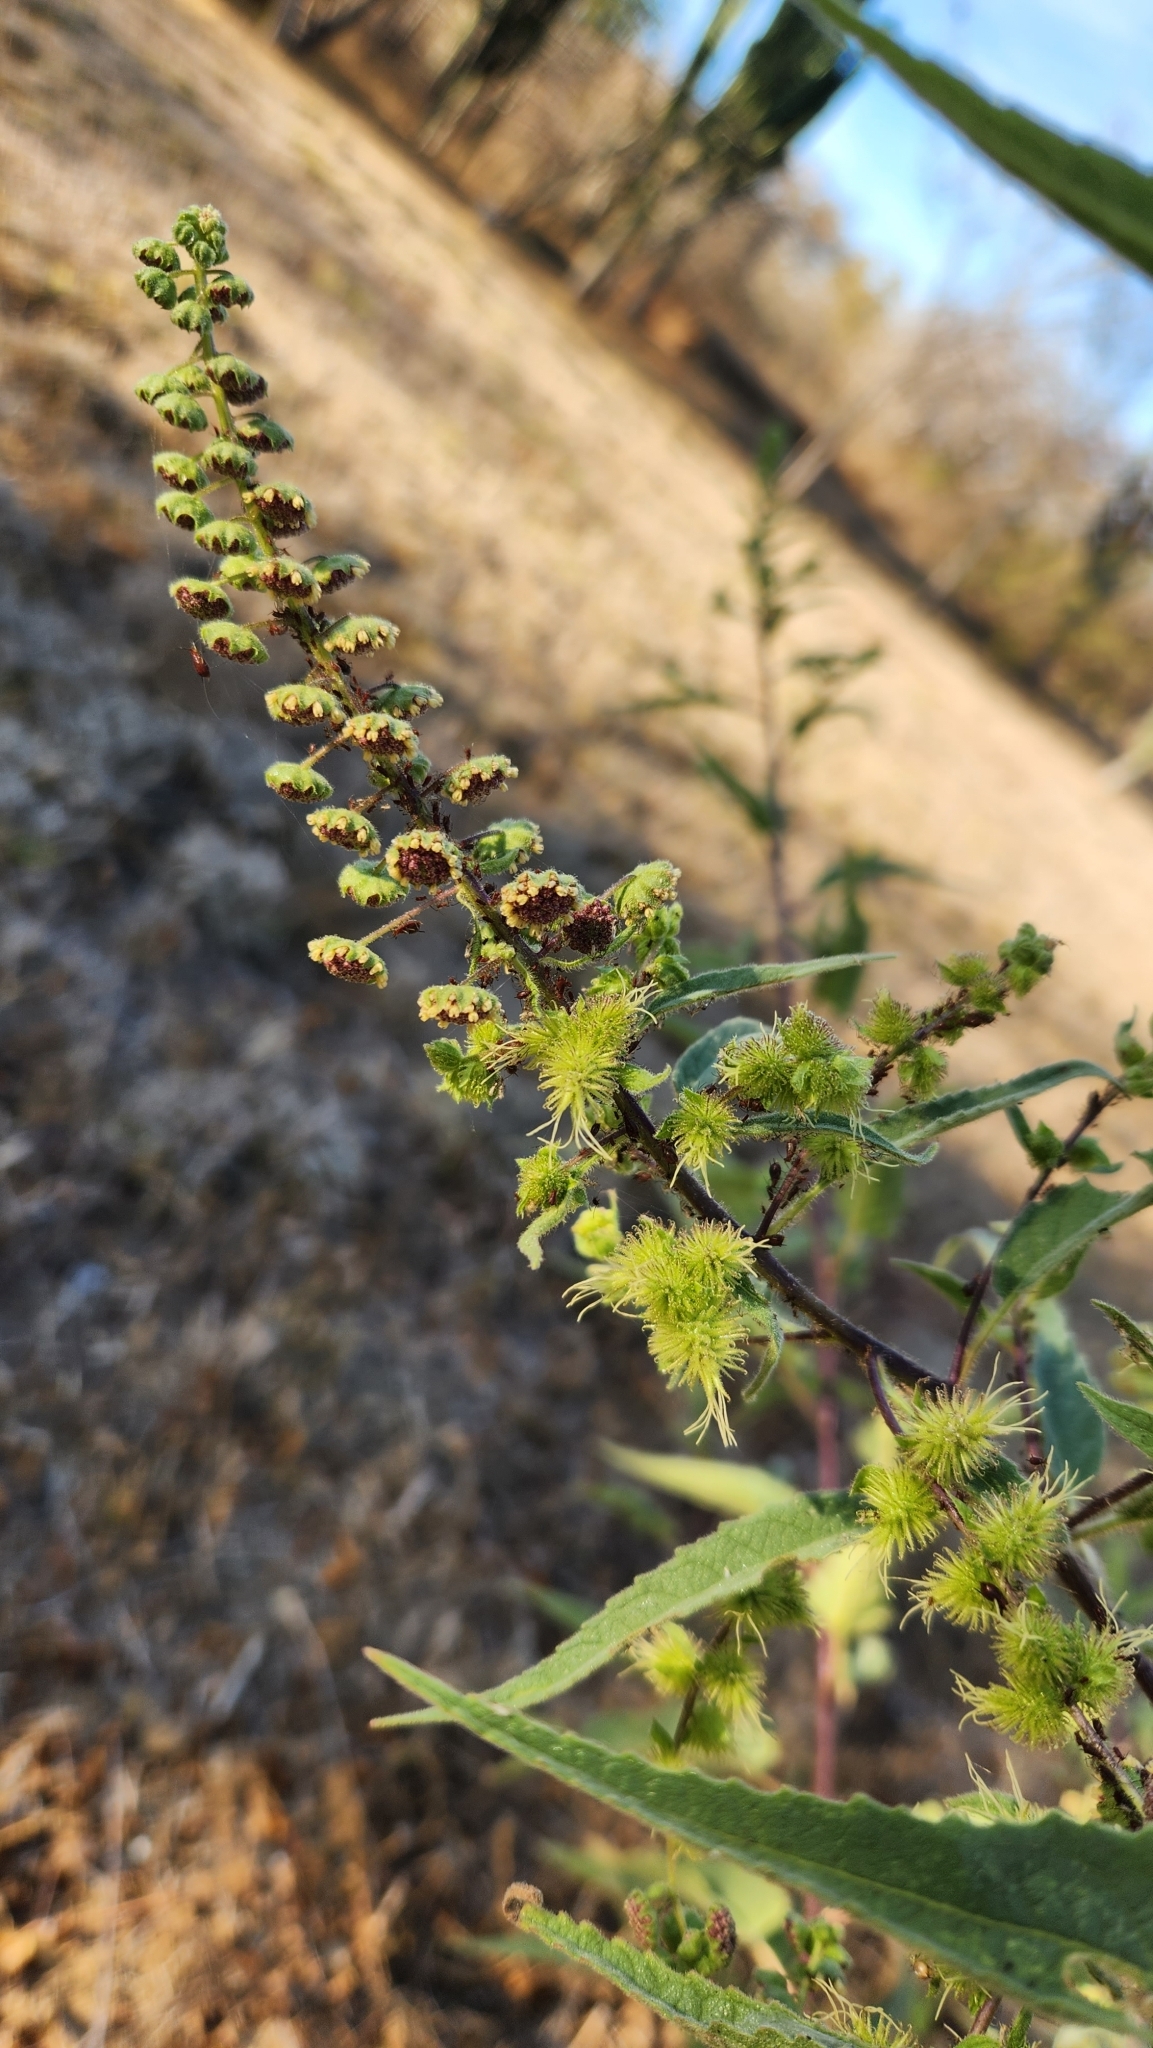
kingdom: Plantae
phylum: Tracheophyta
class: Magnoliopsida
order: Asterales
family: Asteraceae
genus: Ambrosia
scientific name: Ambrosia ambrosioides
